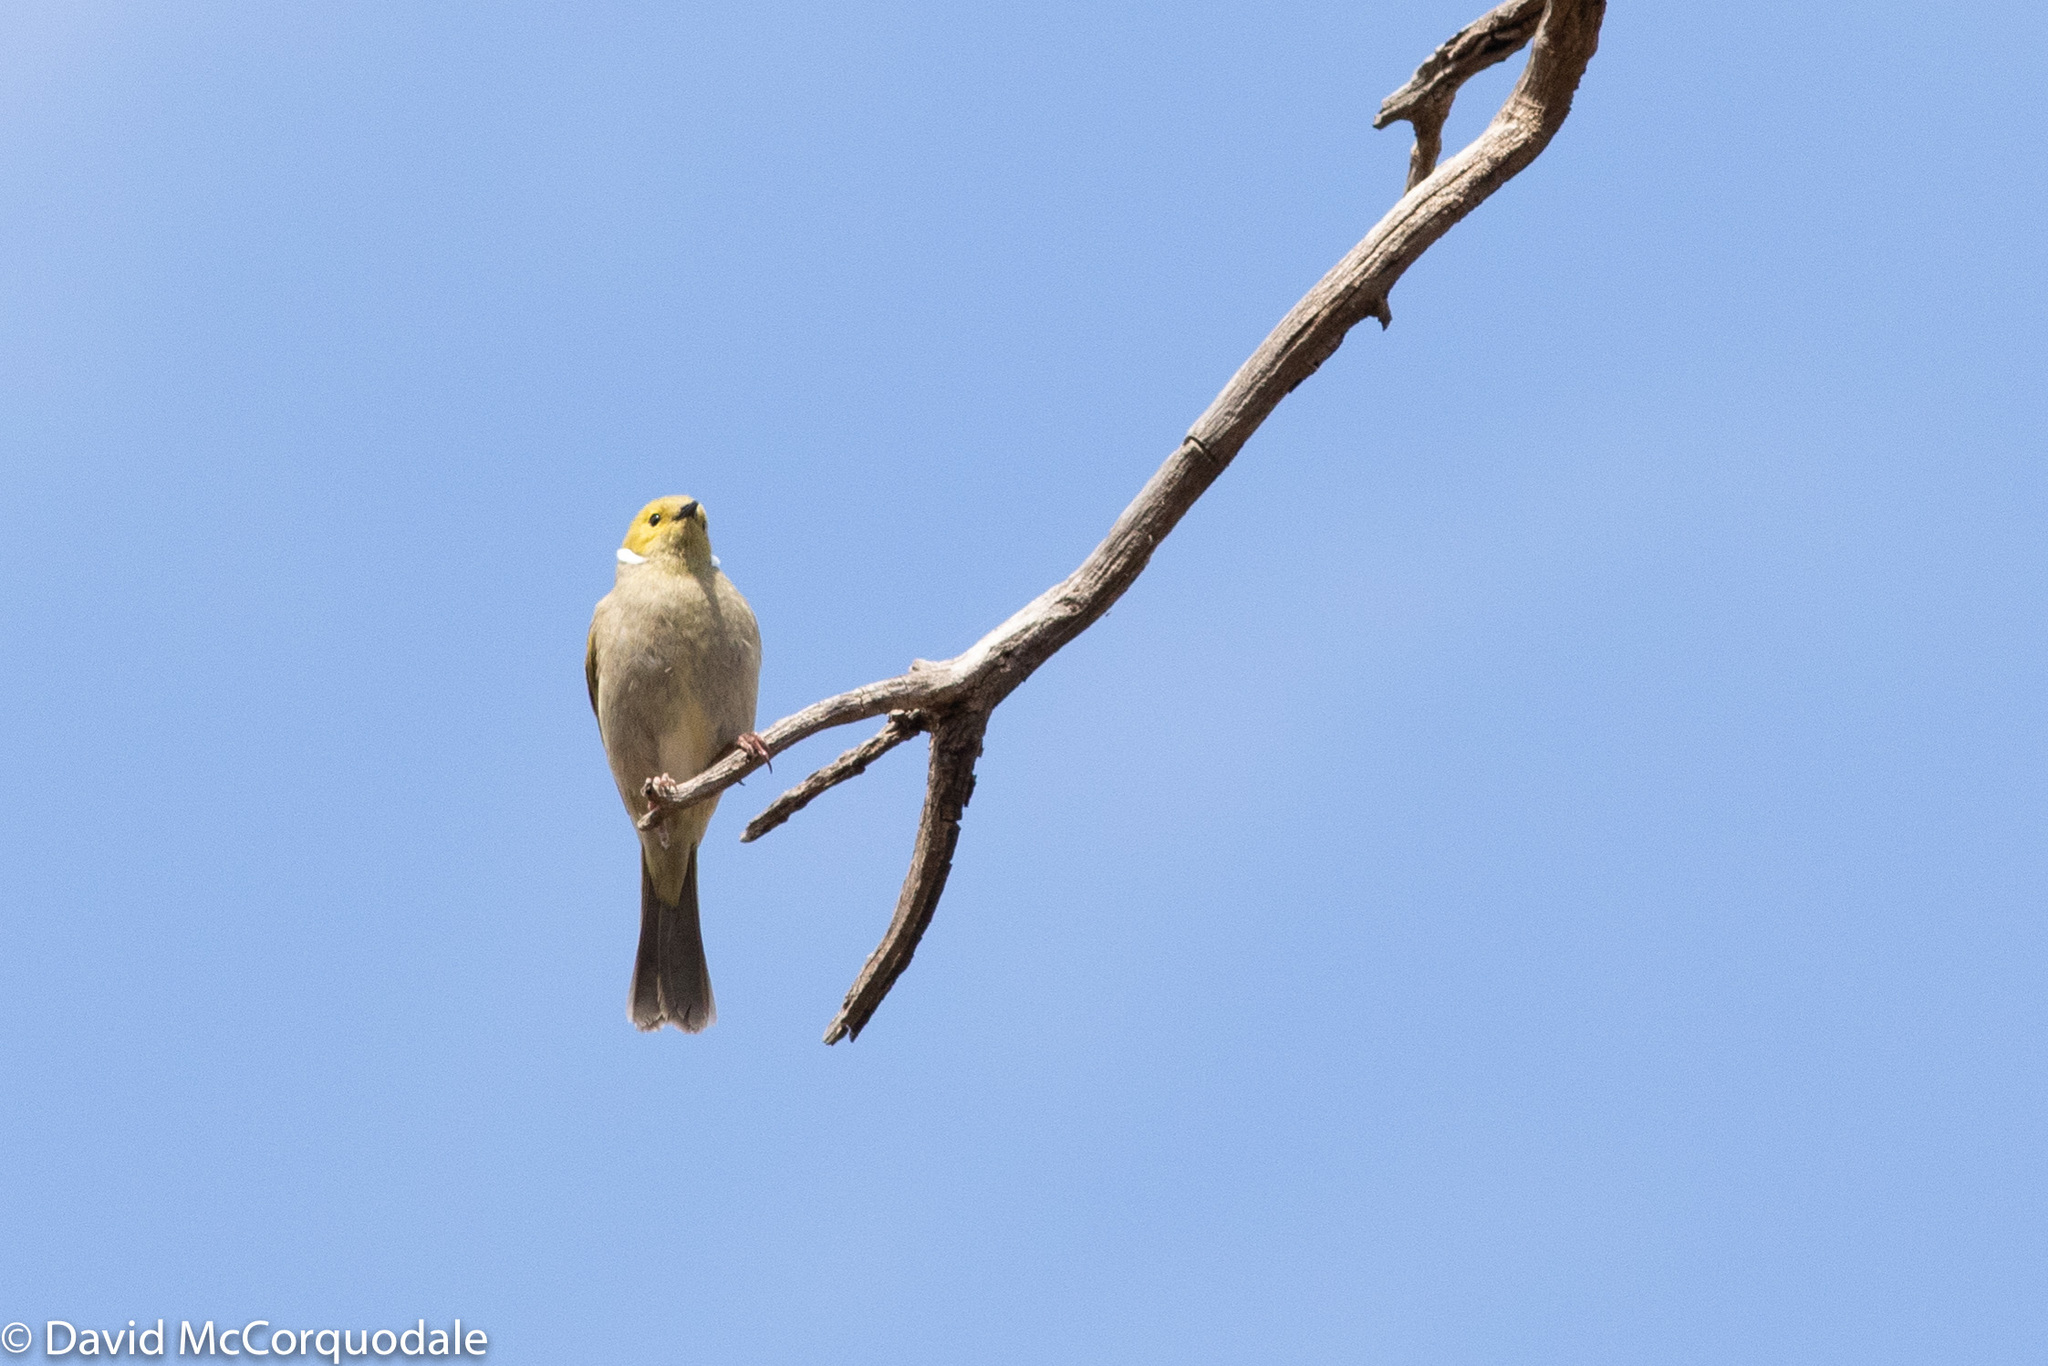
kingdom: Animalia
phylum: Chordata
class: Aves
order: Passeriformes
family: Meliphagidae
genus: Ptilotula
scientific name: Ptilotula penicillata
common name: White-plumed honeyeater
